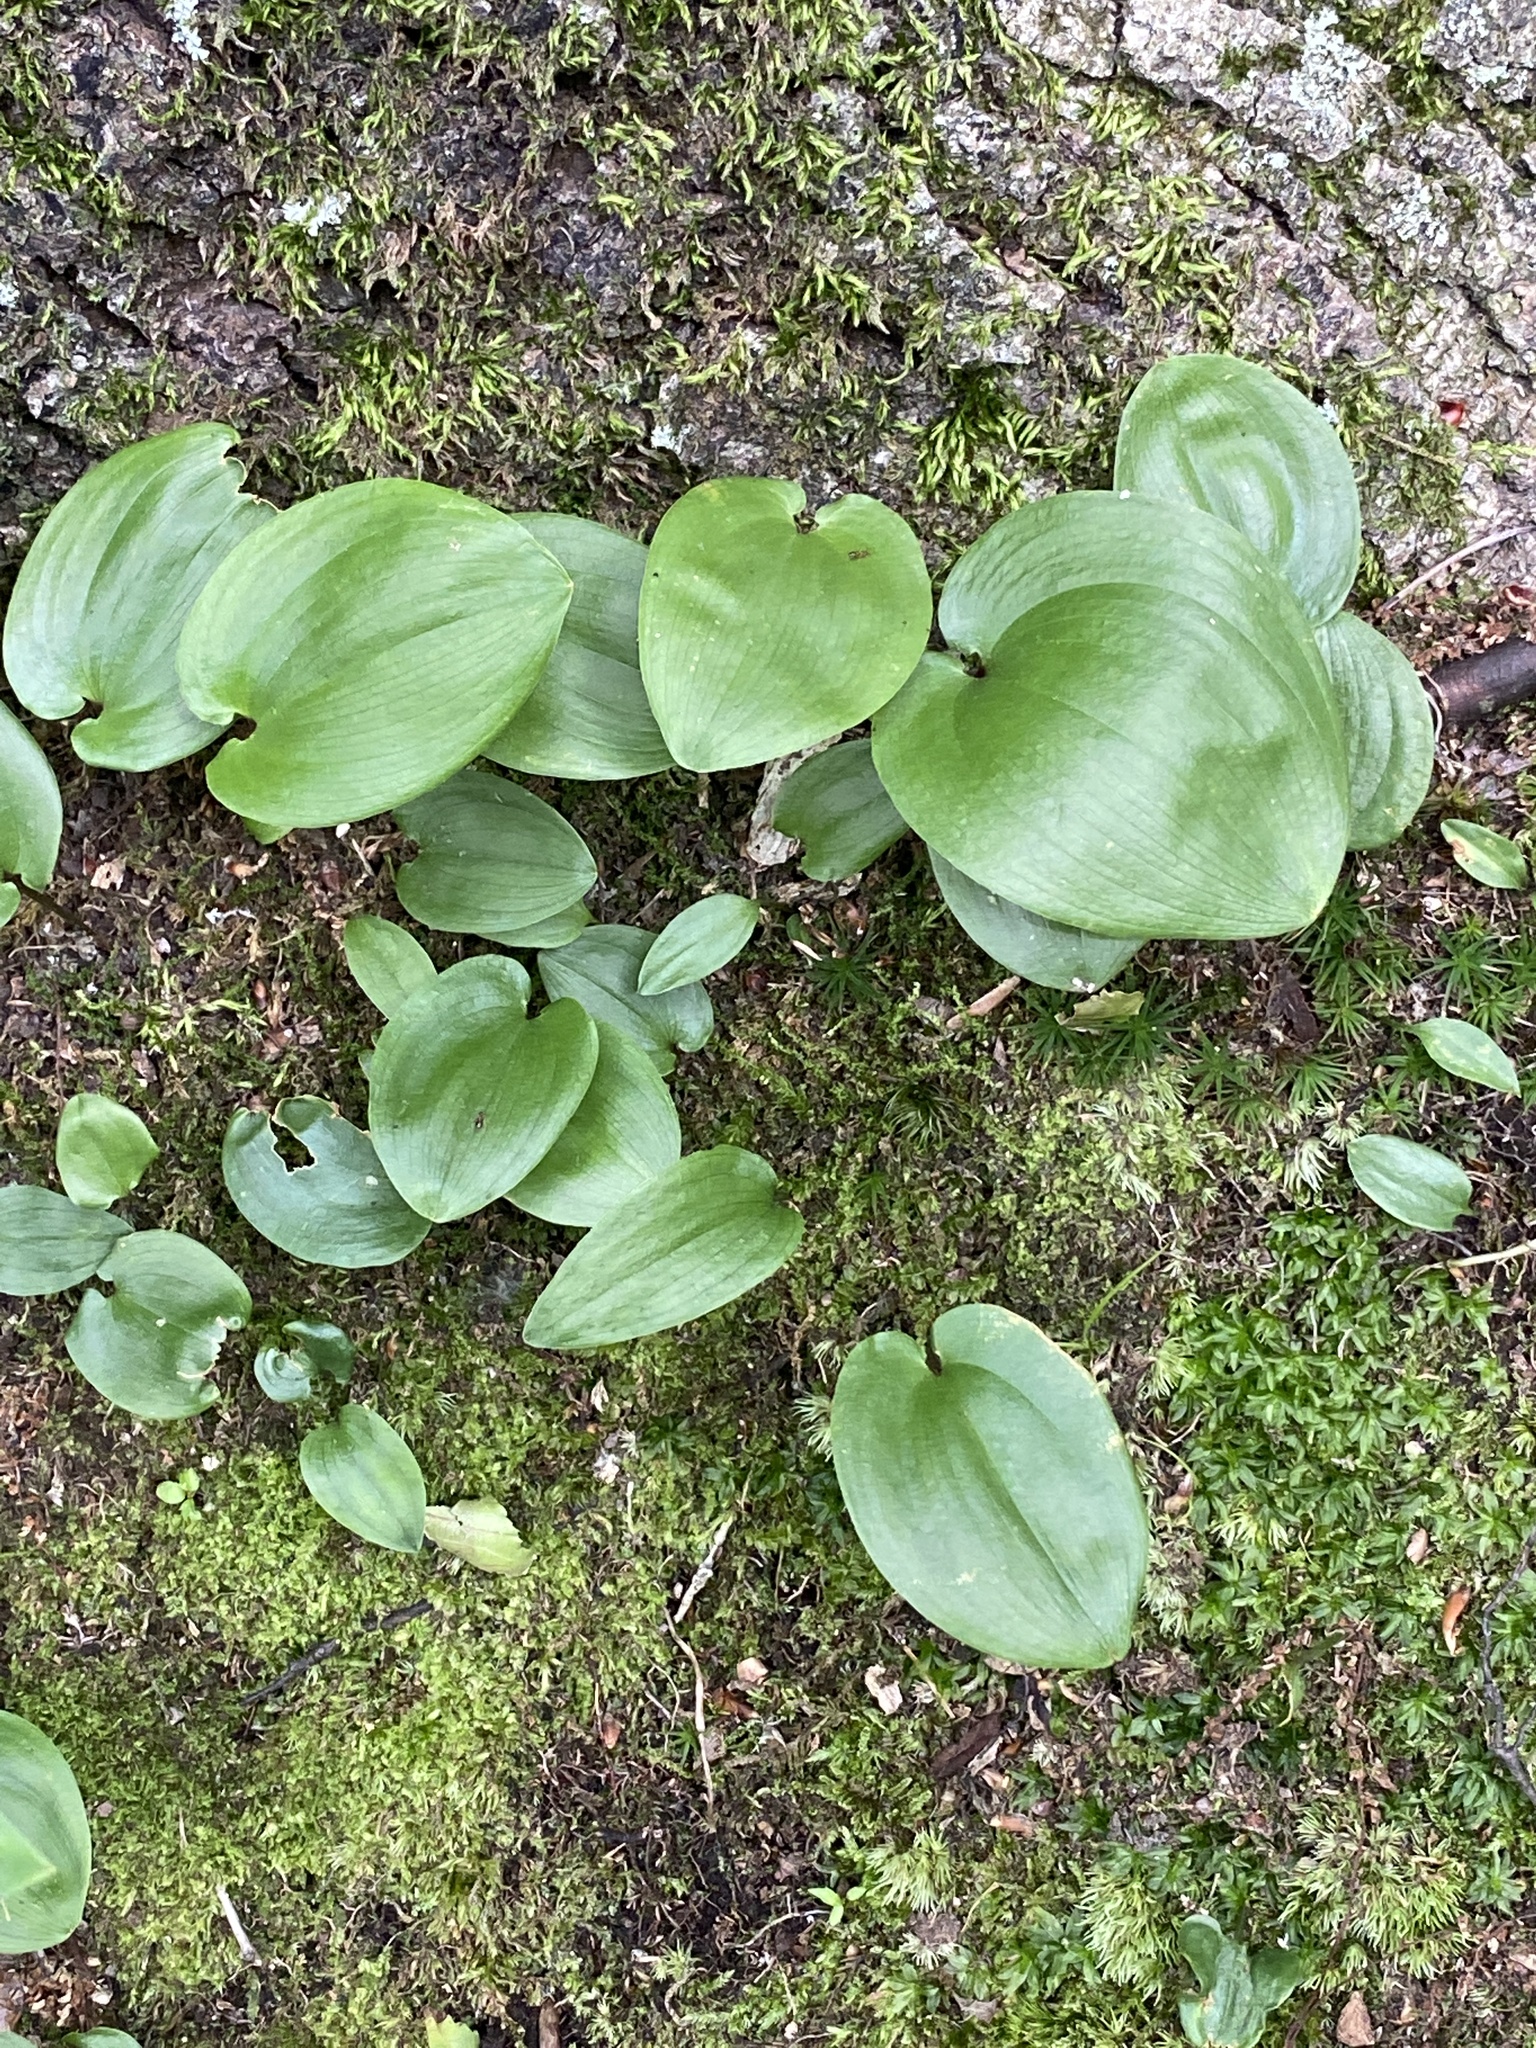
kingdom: Plantae
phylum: Tracheophyta
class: Liliopsida
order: Asparagales
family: Asparagaceae
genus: Maianthemum
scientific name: Maianthemum canadense
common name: False lily-of-the-valley
